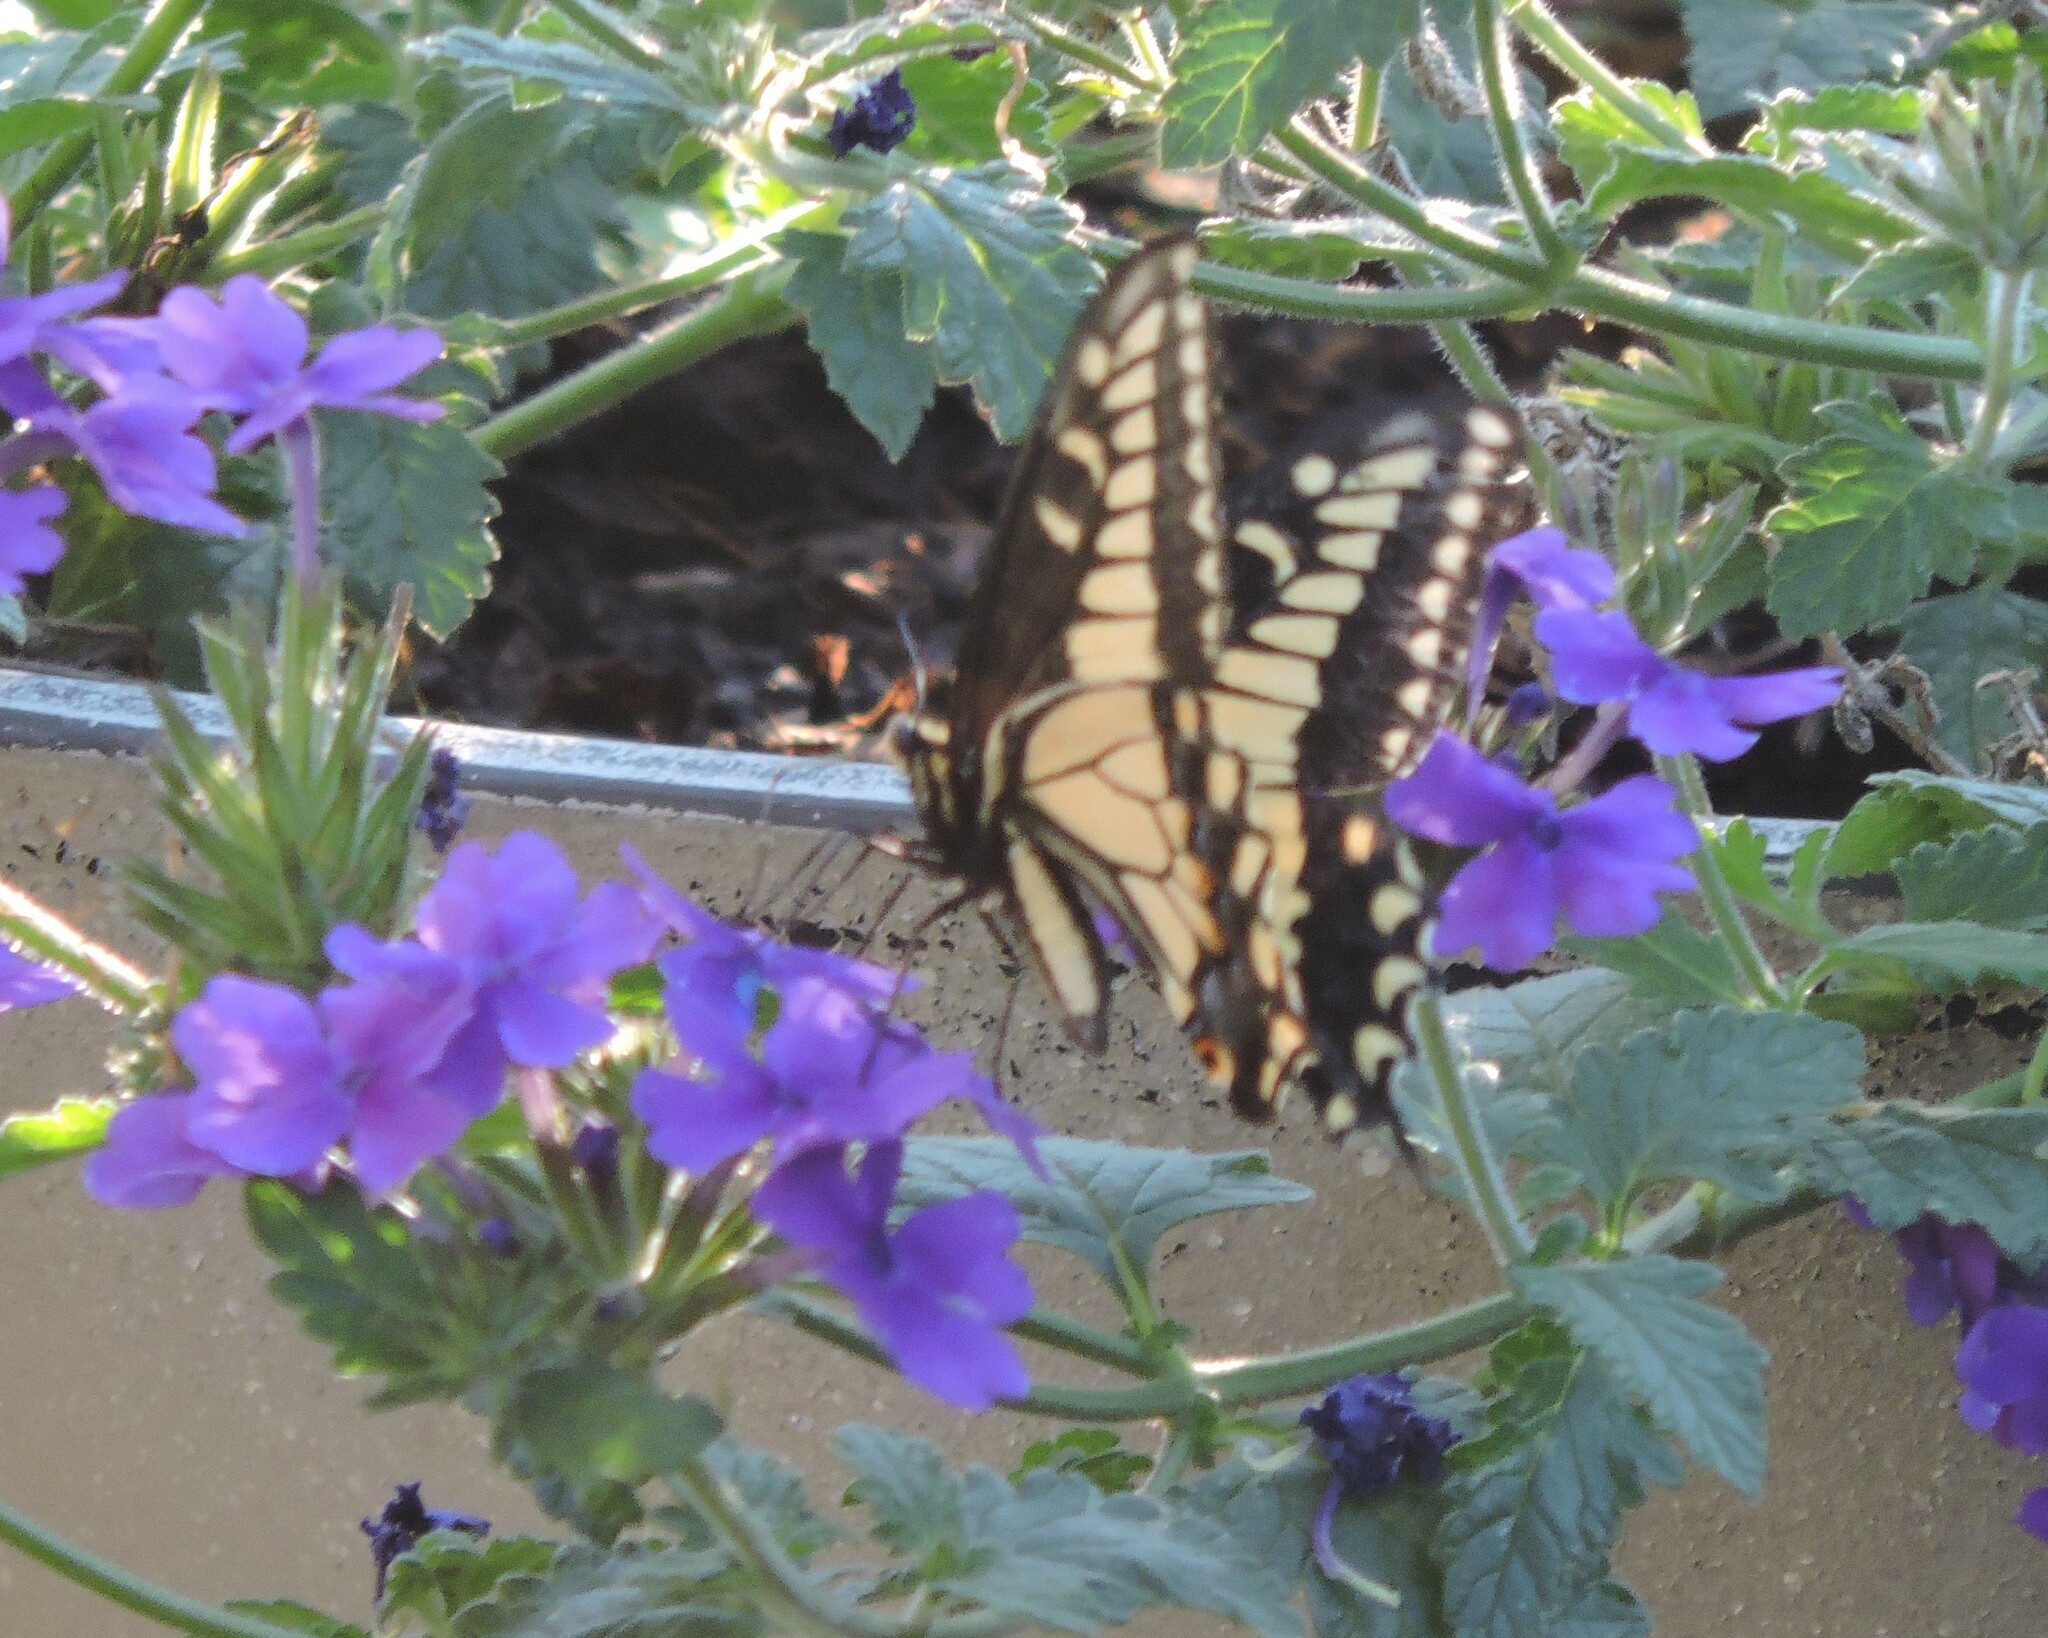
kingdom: Animalia
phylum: Arthropoda
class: Insecta
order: Lepidoptera
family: Papilionidae
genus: Papilio
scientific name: Papilio zelicaon
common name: Anise swallowtail
